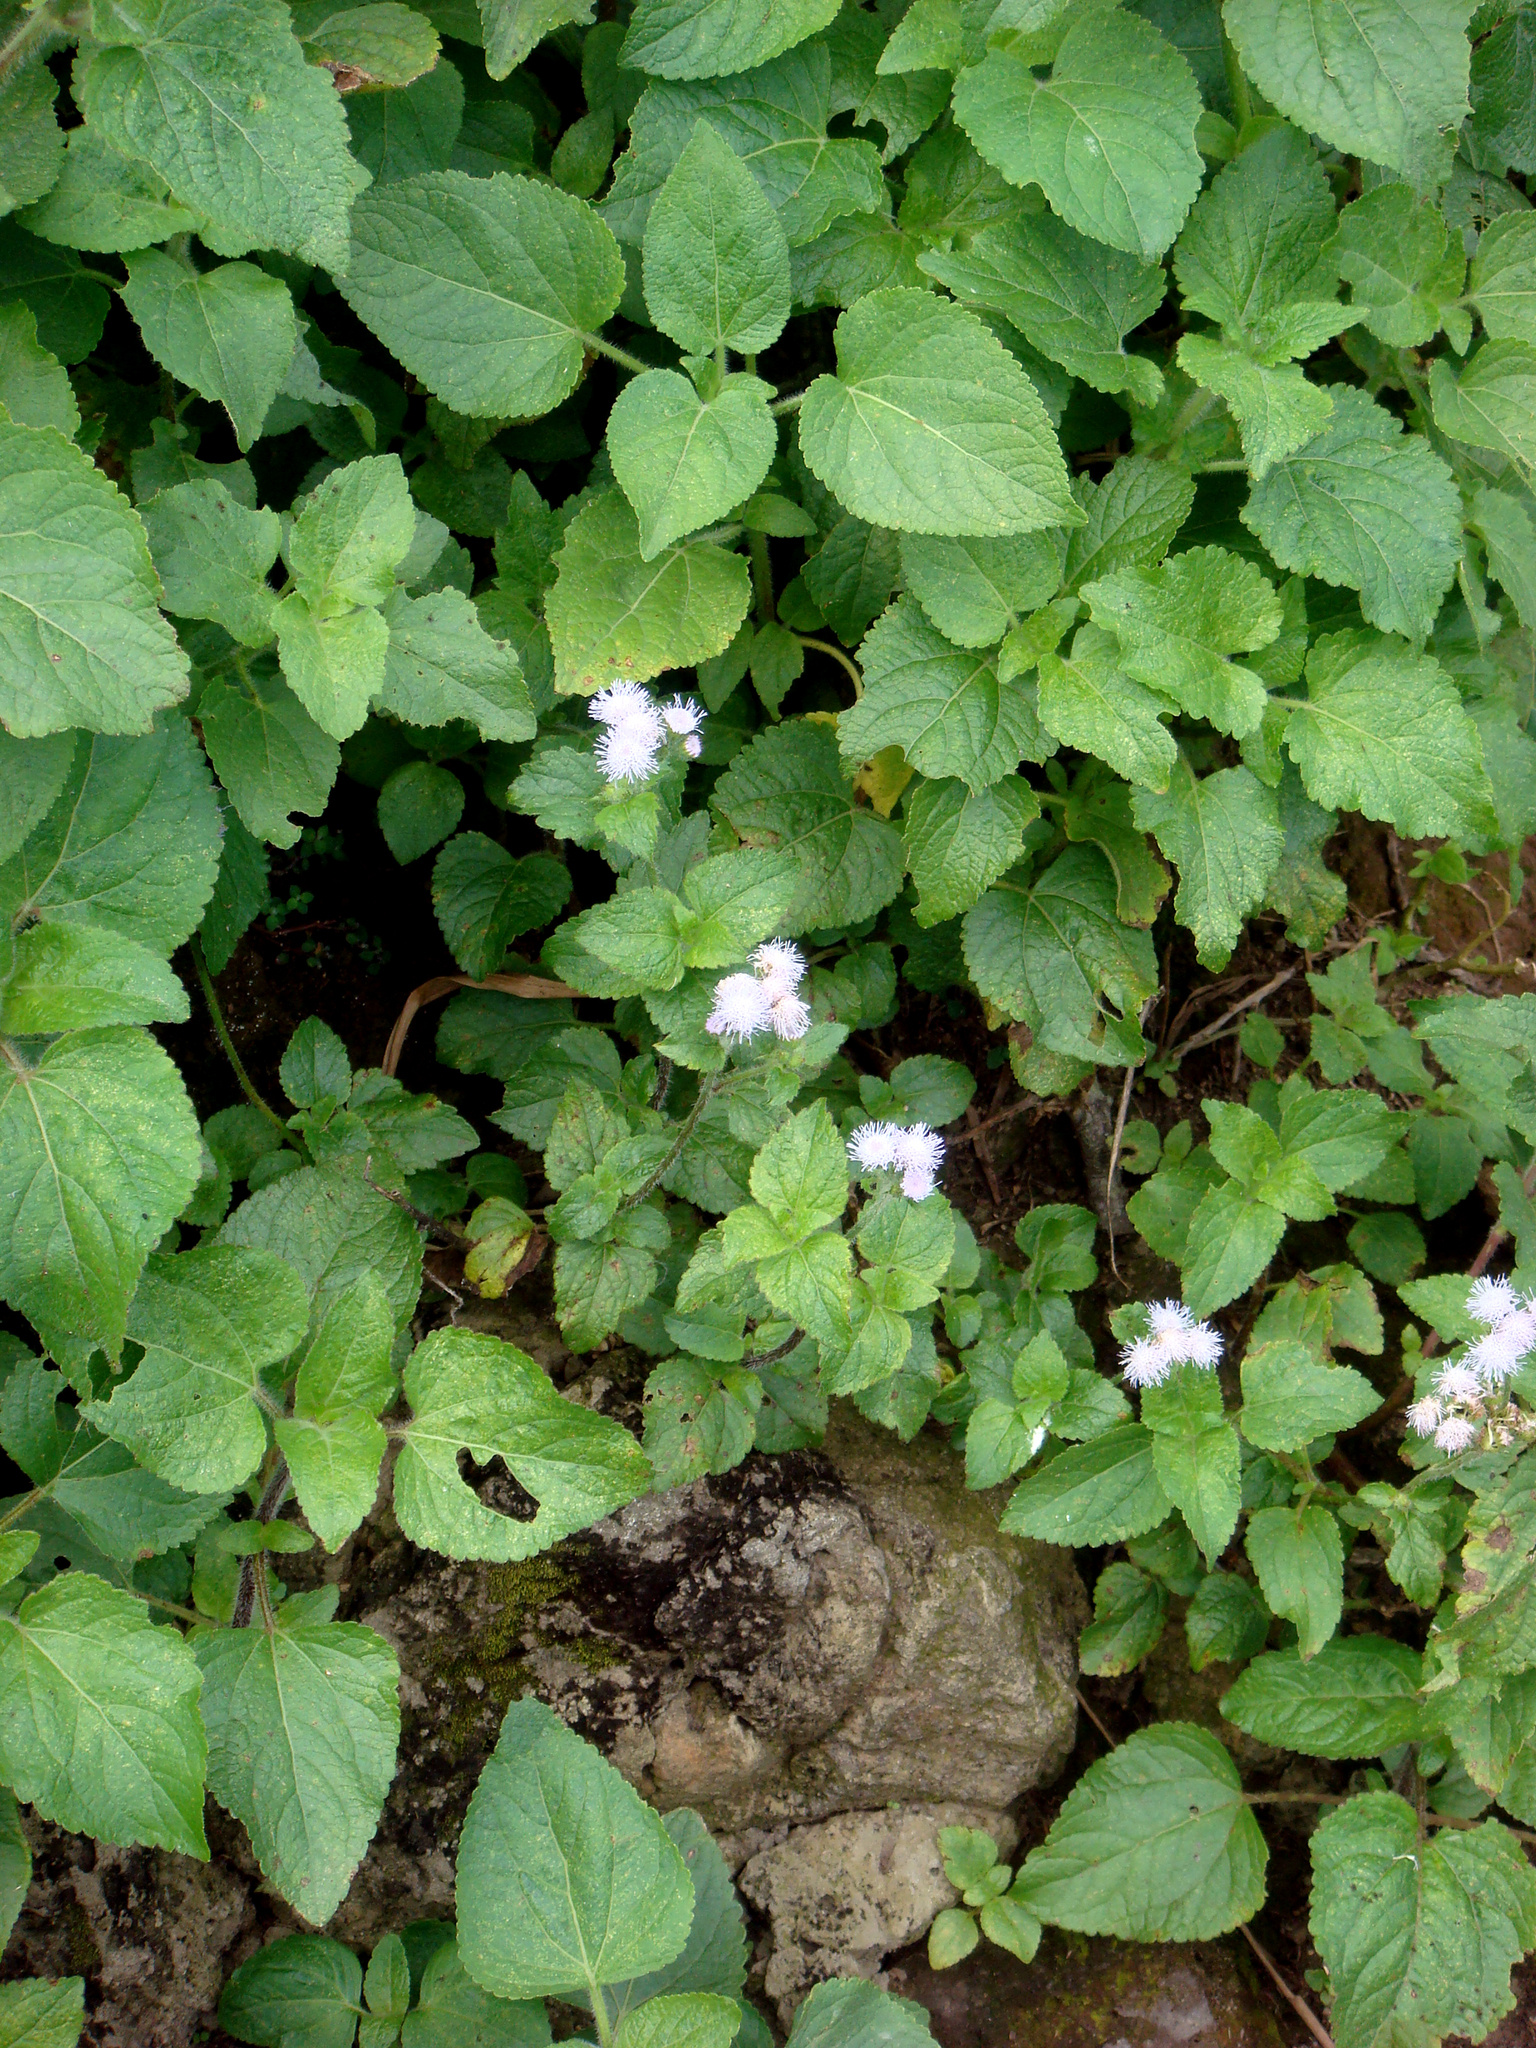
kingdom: Plantae
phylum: Tracheophyta
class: Magnoliopsida
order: Asterales
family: Asteraceae
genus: Ageratum
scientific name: Ageratum houstonianum
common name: Bluemink
